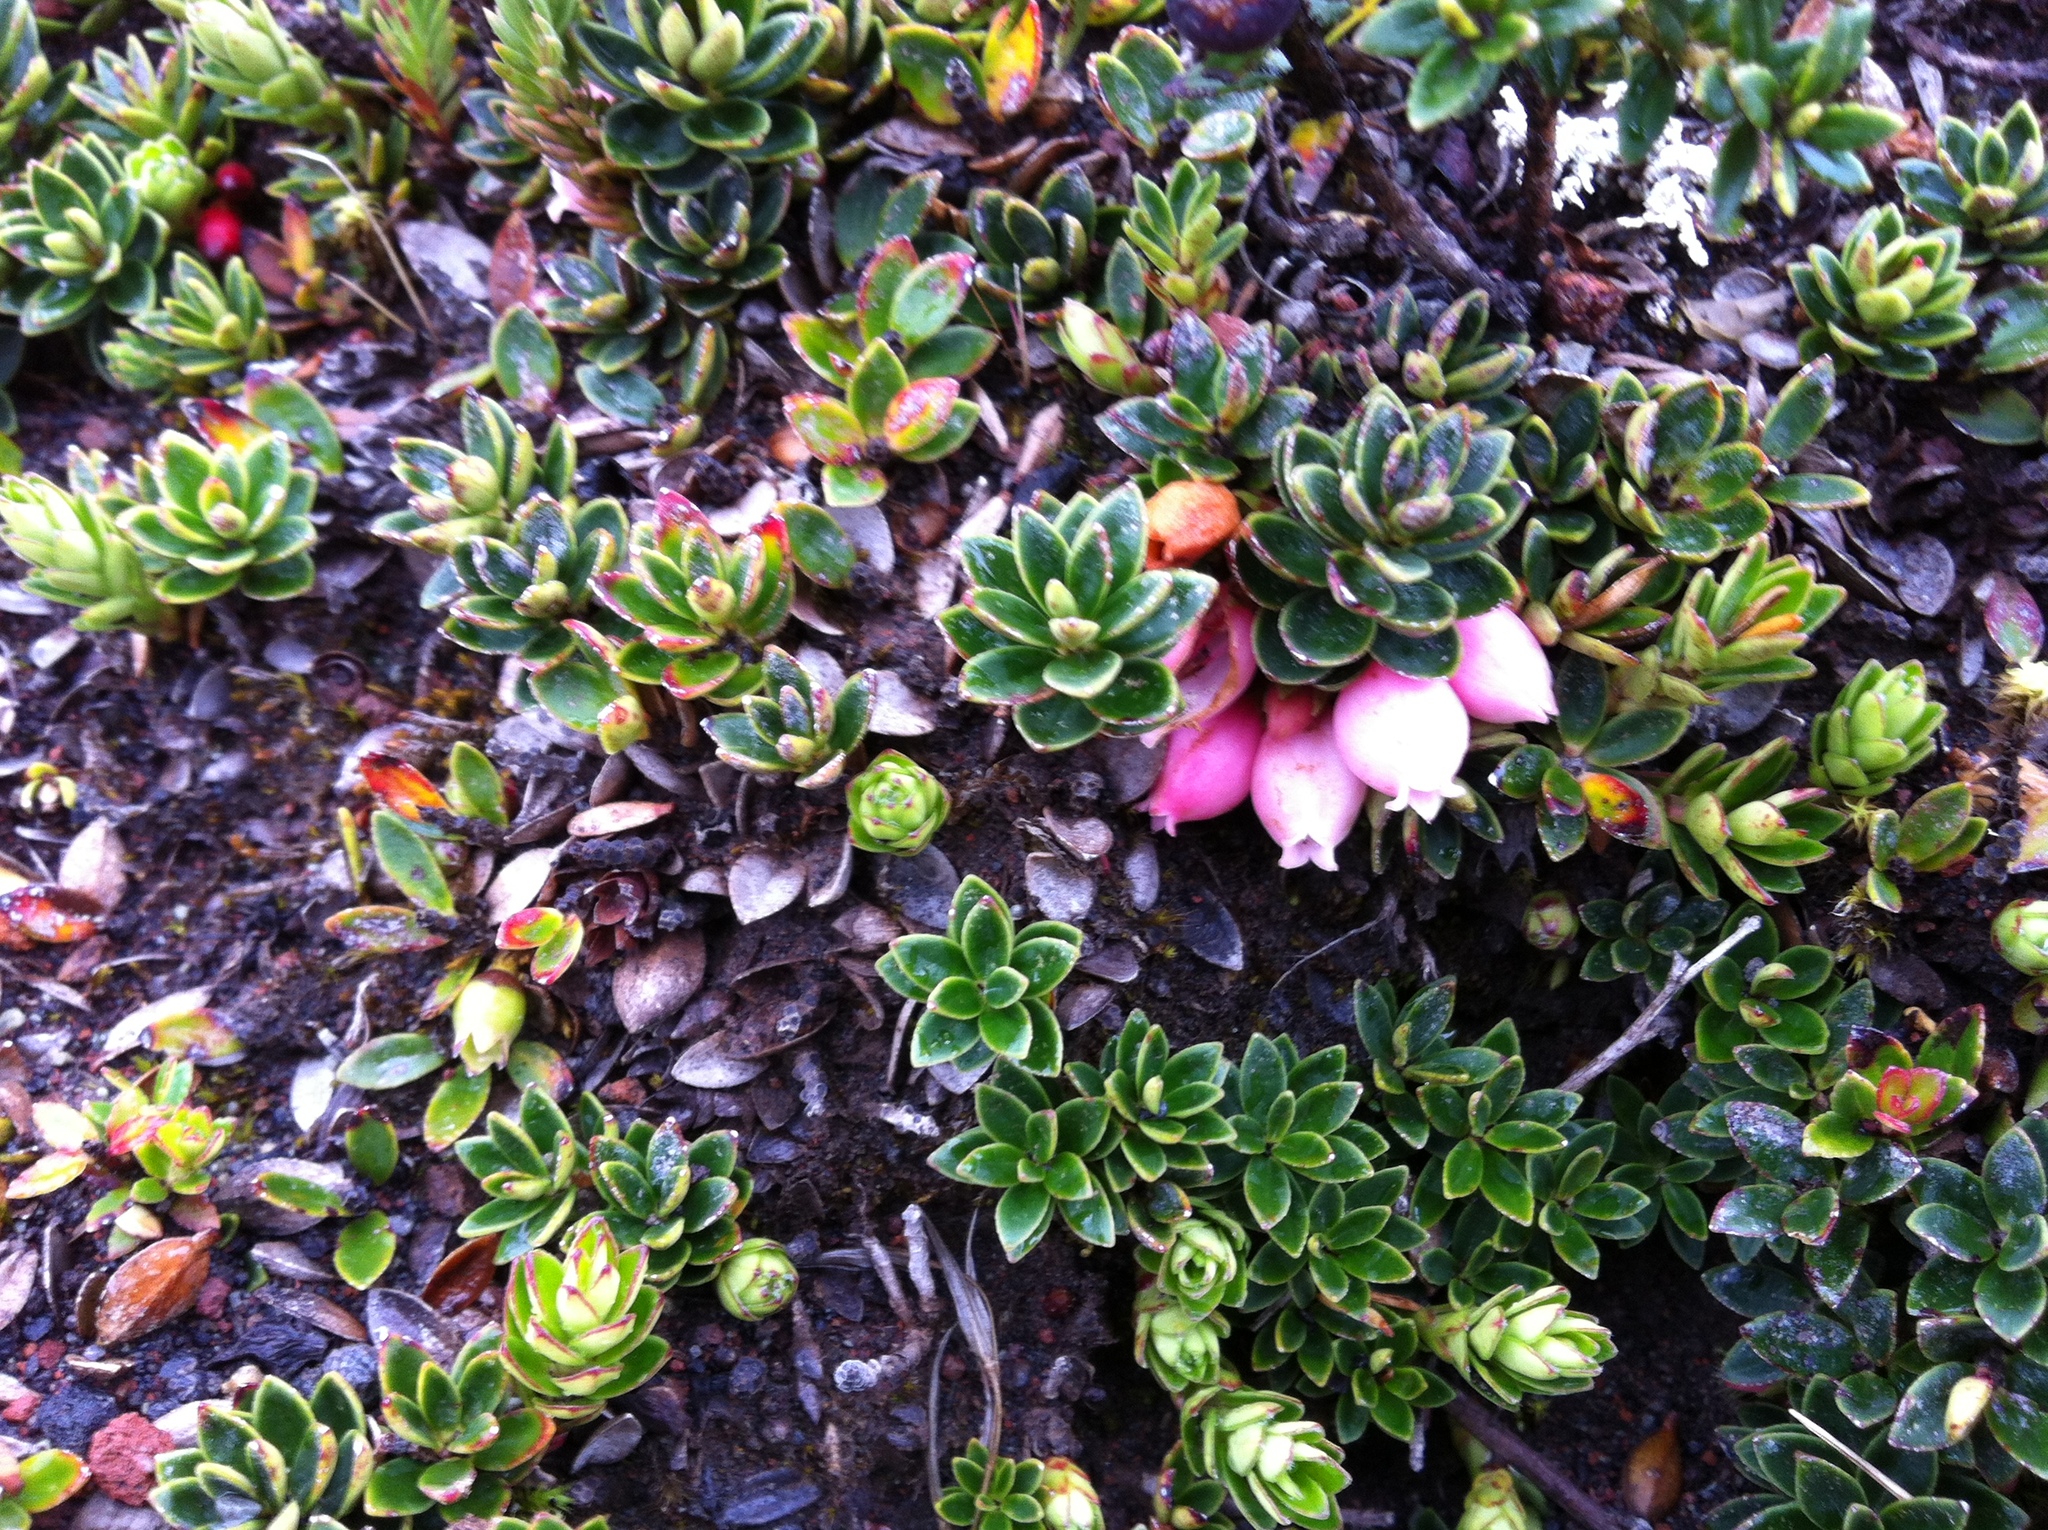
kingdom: Plantae
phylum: Tracheophyta
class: Magnoliopsida
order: Ericales
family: Ericaceae
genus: Disterigma
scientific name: Disterigma empetrifolium
